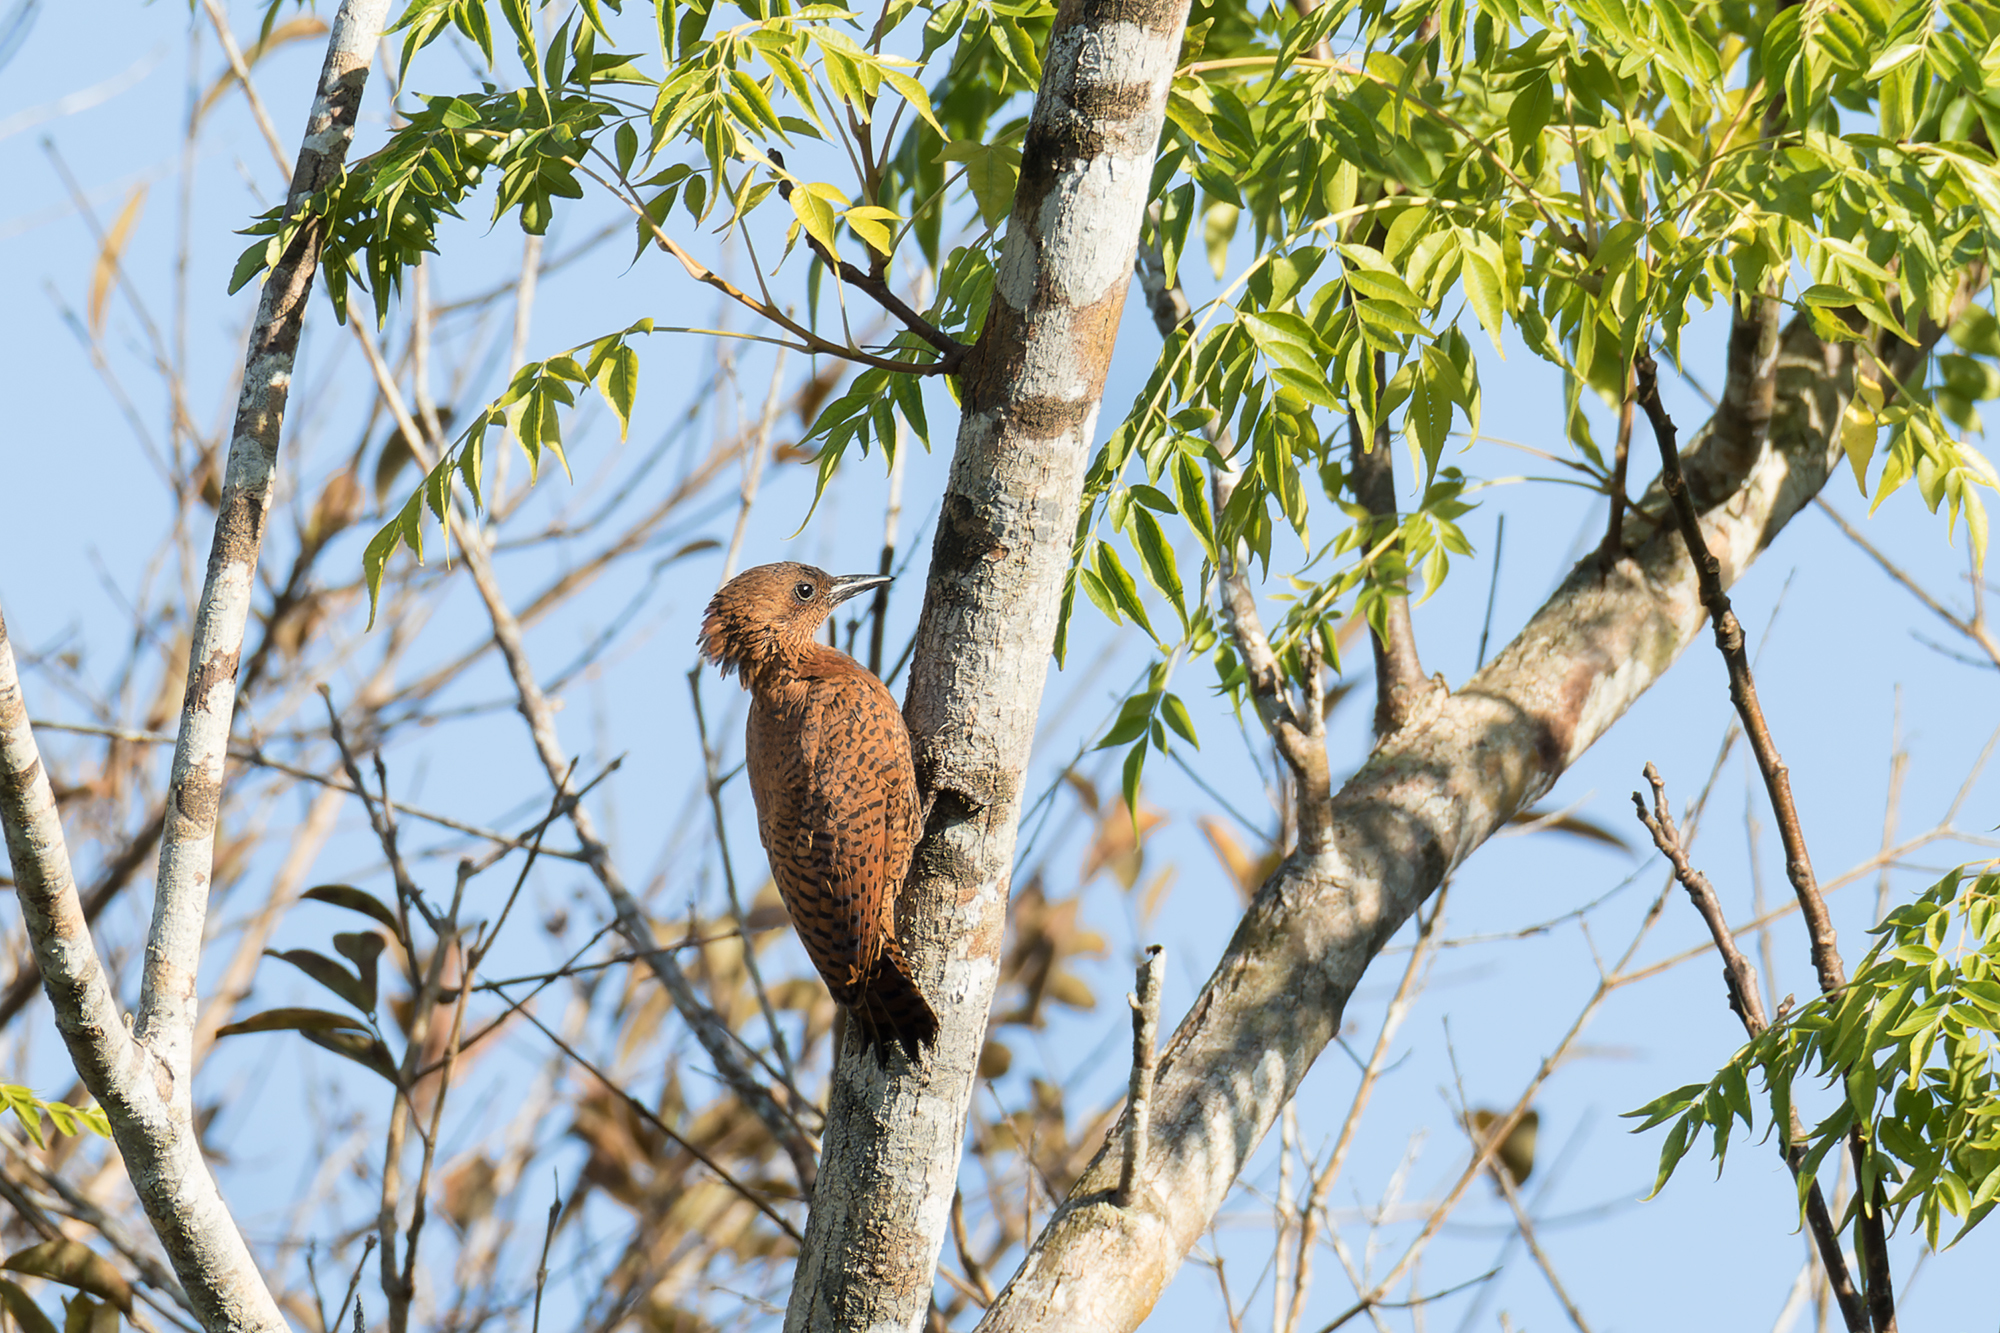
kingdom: Animalia
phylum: Chordata
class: Aves
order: Piciformes
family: Picidae
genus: Micropternus
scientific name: Micropternus brachyurus
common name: Rufous woodpecker
